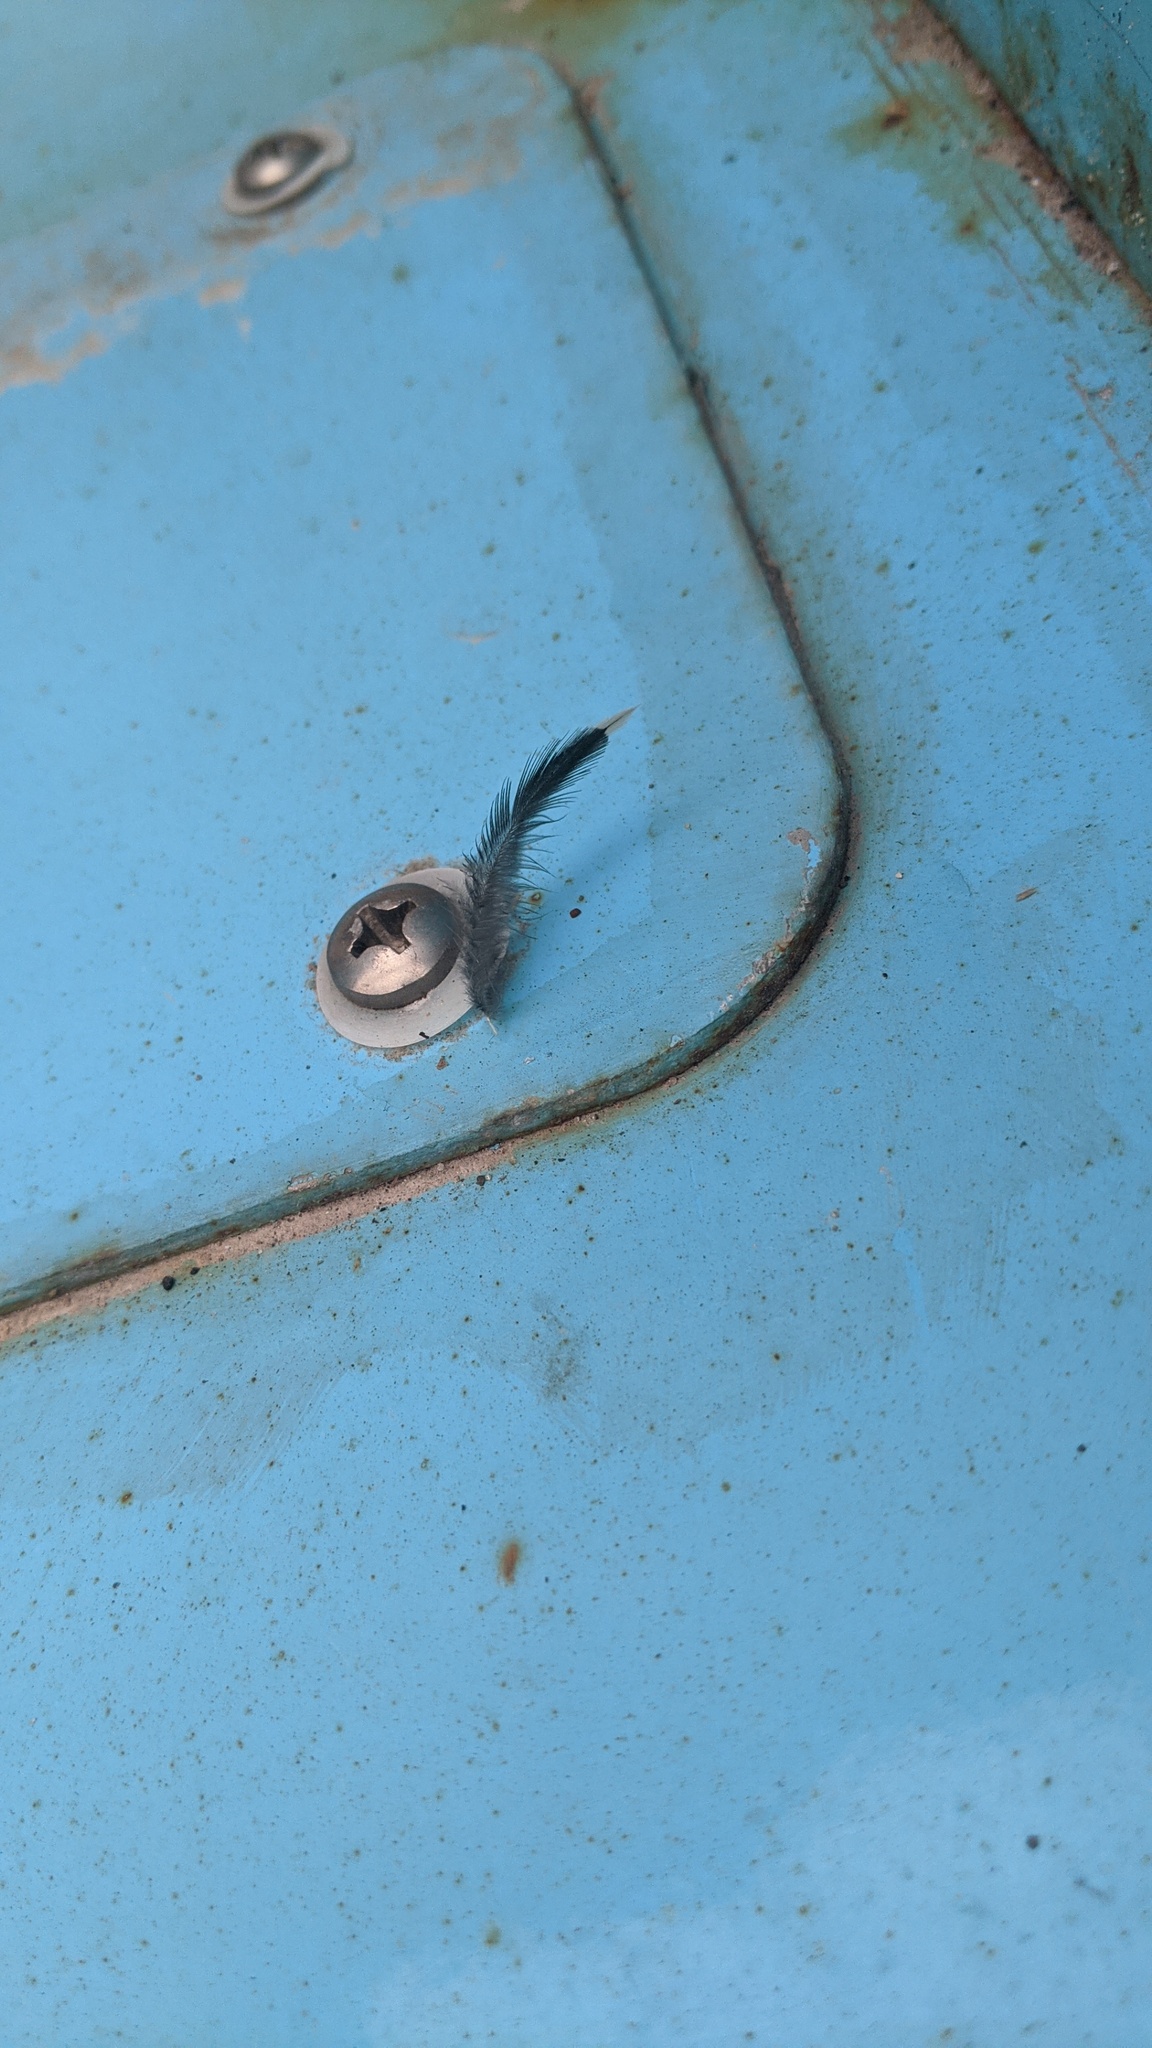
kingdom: Animalia
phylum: Chordata
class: Aves
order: Passeriformes
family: Sturnidae
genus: Sturnus
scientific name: Sturnus vulgaris
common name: Common starling
